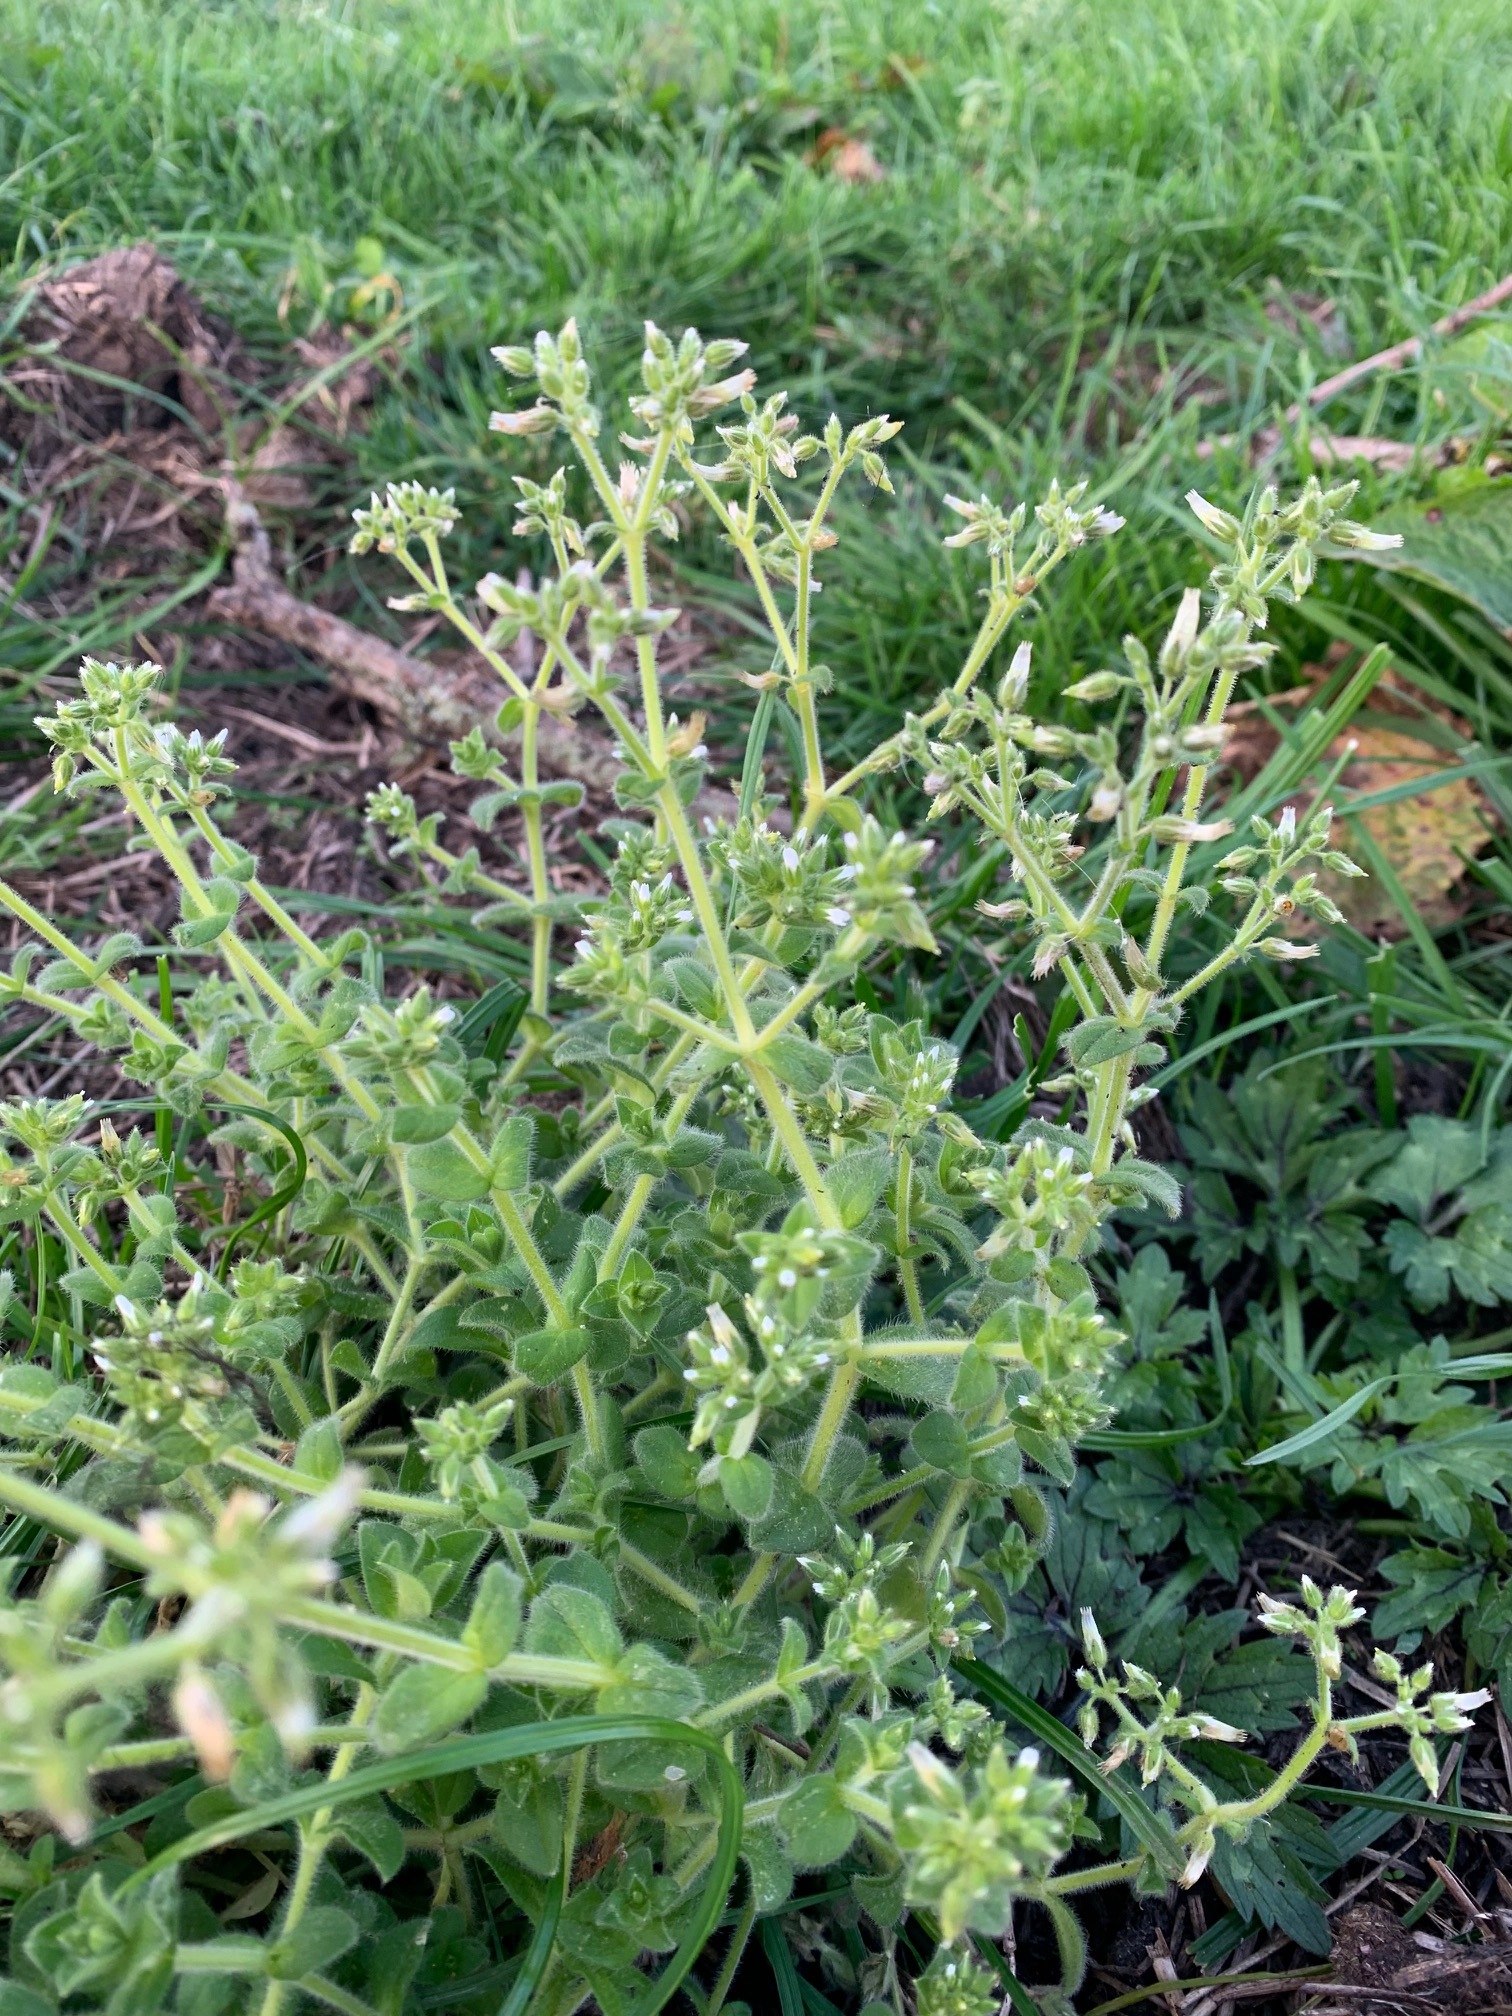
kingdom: Plantae
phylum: Tracheophyta
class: Magnoliopsida
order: Caryophyllales
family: Caryophyllaceae
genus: Cerastium
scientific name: Cerastium glomeratum
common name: Sticky chickweed
